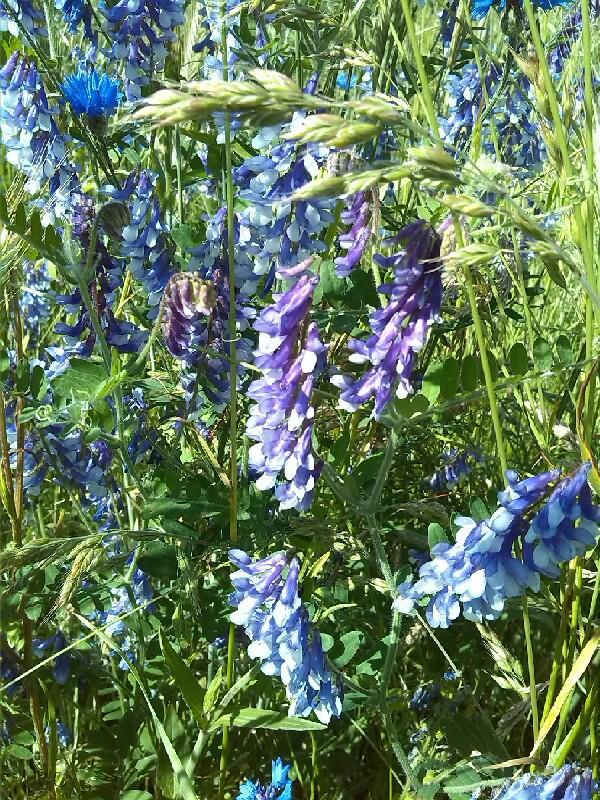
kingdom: Plantae
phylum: Tracheophyta
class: Magnoliopsida
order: Fabales
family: Fabaceae
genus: Vicia
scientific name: Vicia villosa
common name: Fodder vetch
